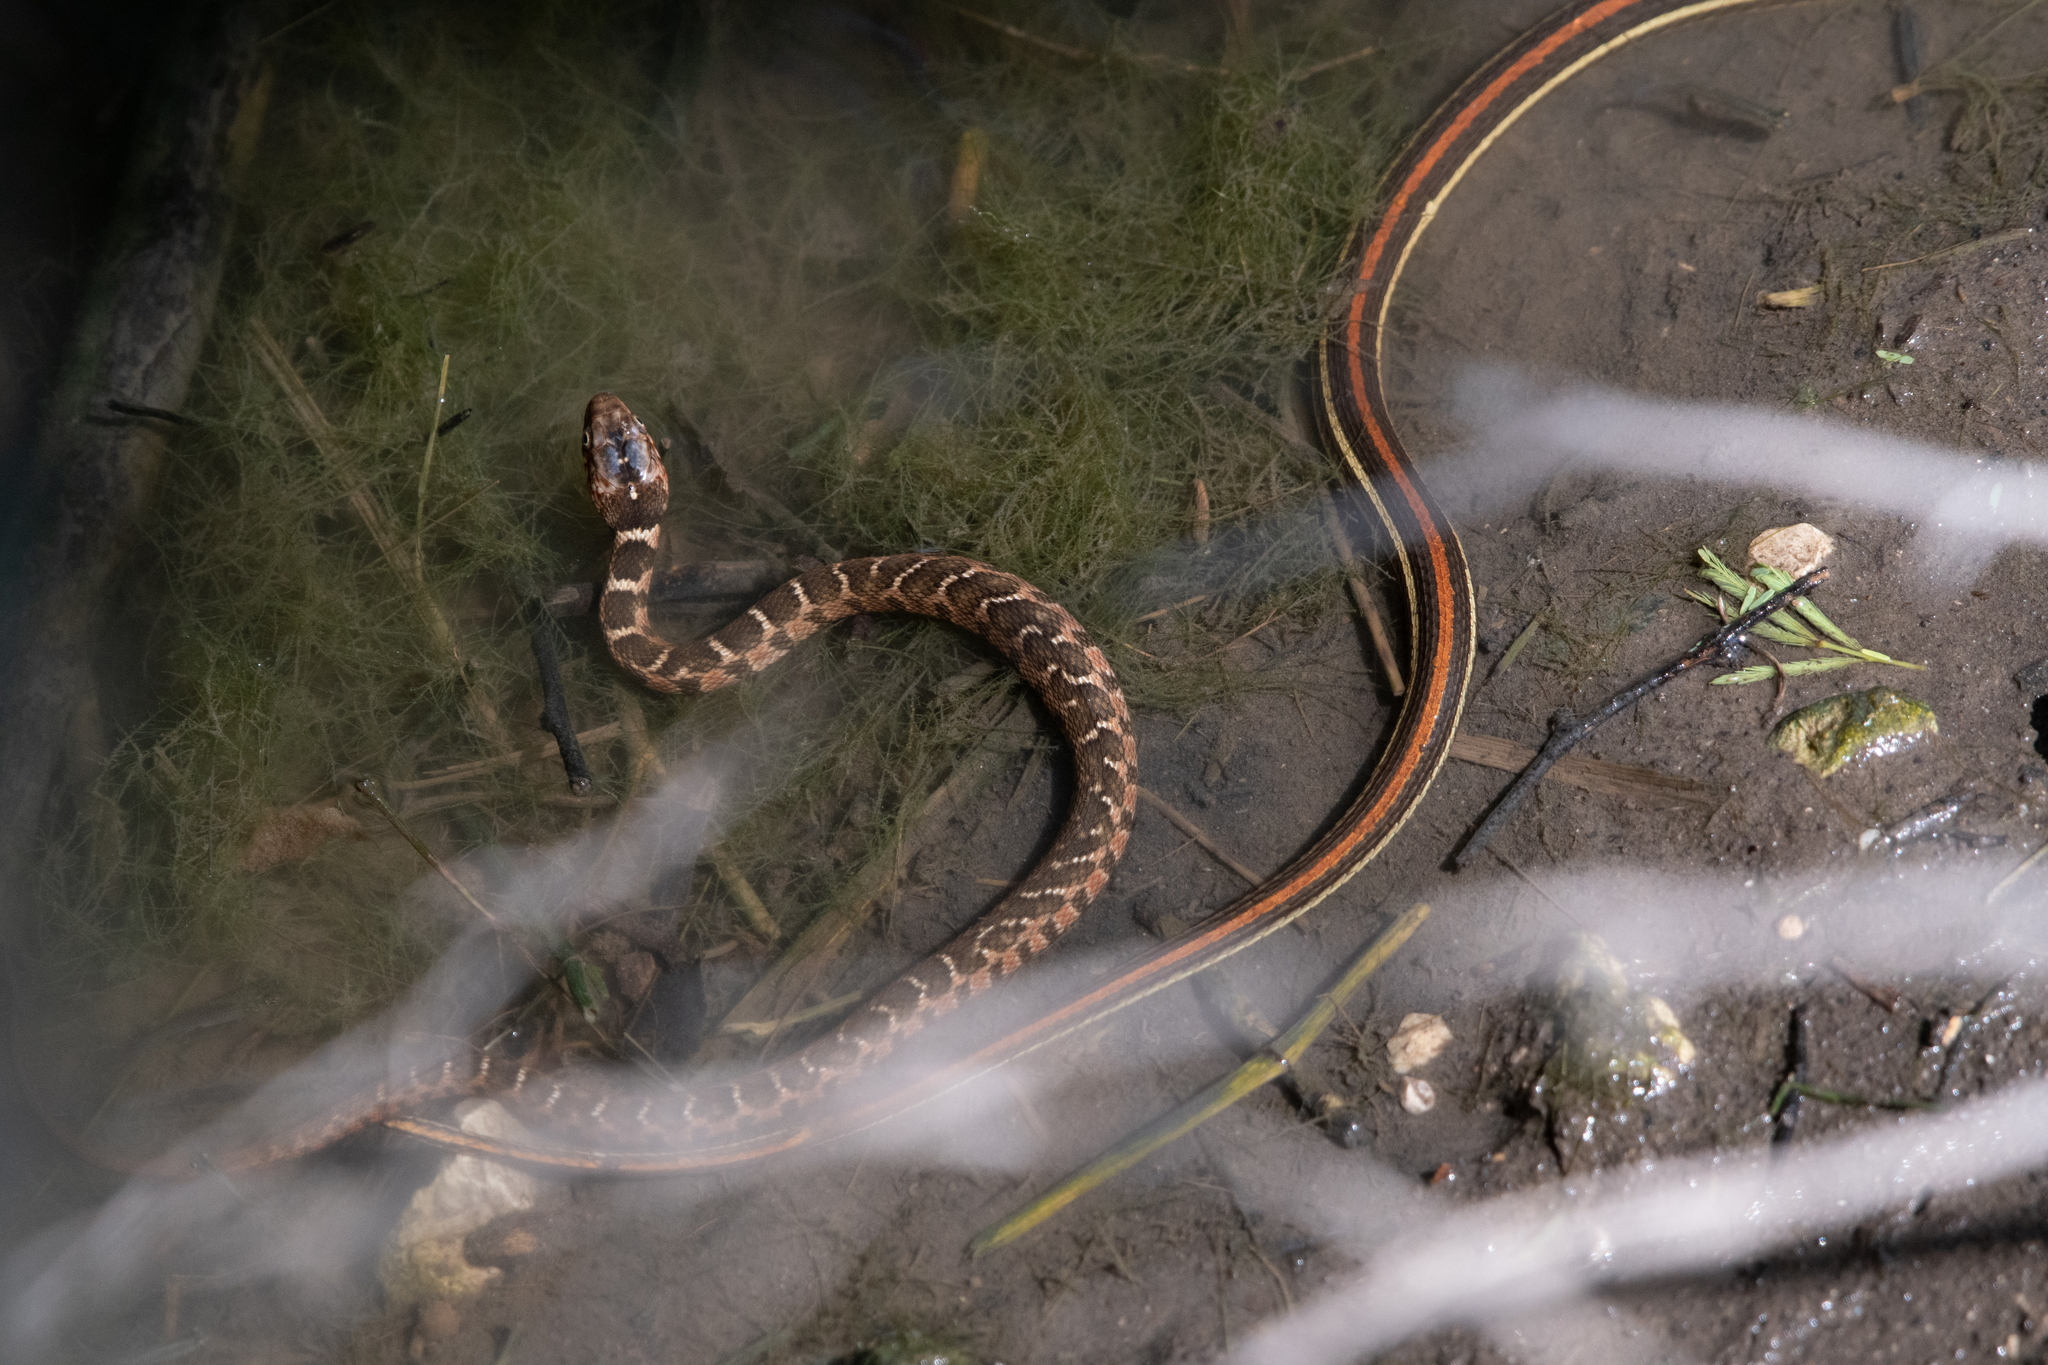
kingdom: Animalia
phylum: Chordata
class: Squamata
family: Colubridae
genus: Nerodia
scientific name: Nerodia erythrogaster
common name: Plainbelly water snake
